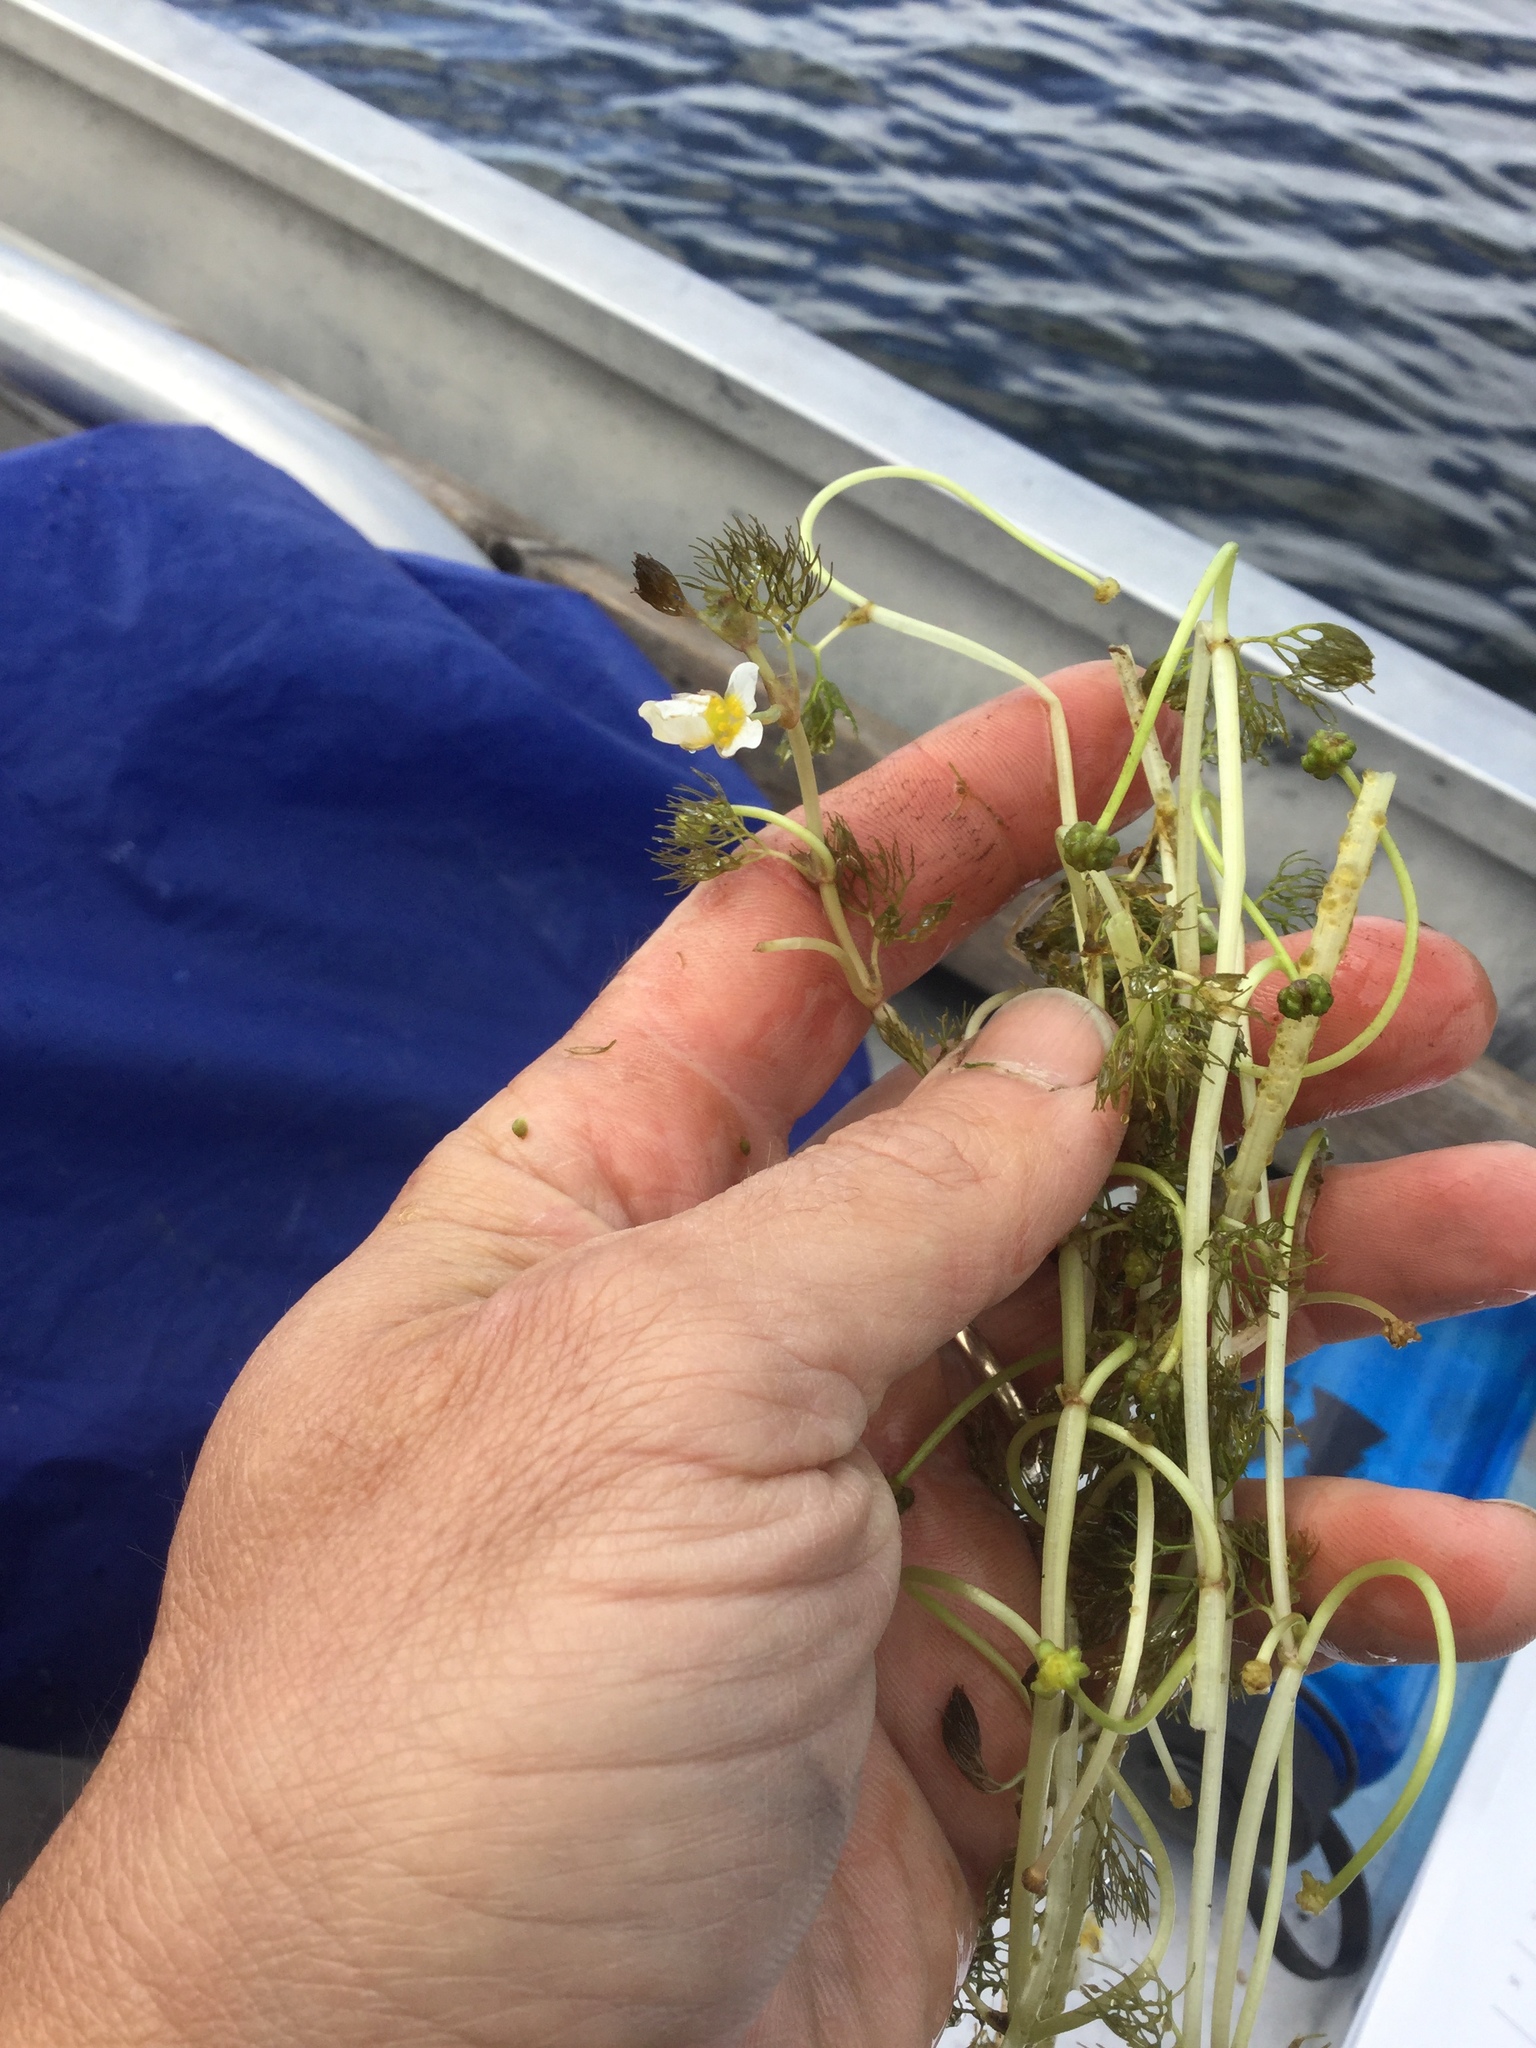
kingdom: Plantae
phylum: Tracheophyta
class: Magnoliopsida
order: Ranunculales
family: Ranunculaceae
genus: Ranunculus
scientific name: Ranunculus trichophyllus
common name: Thread-leaved water-crowfoot
